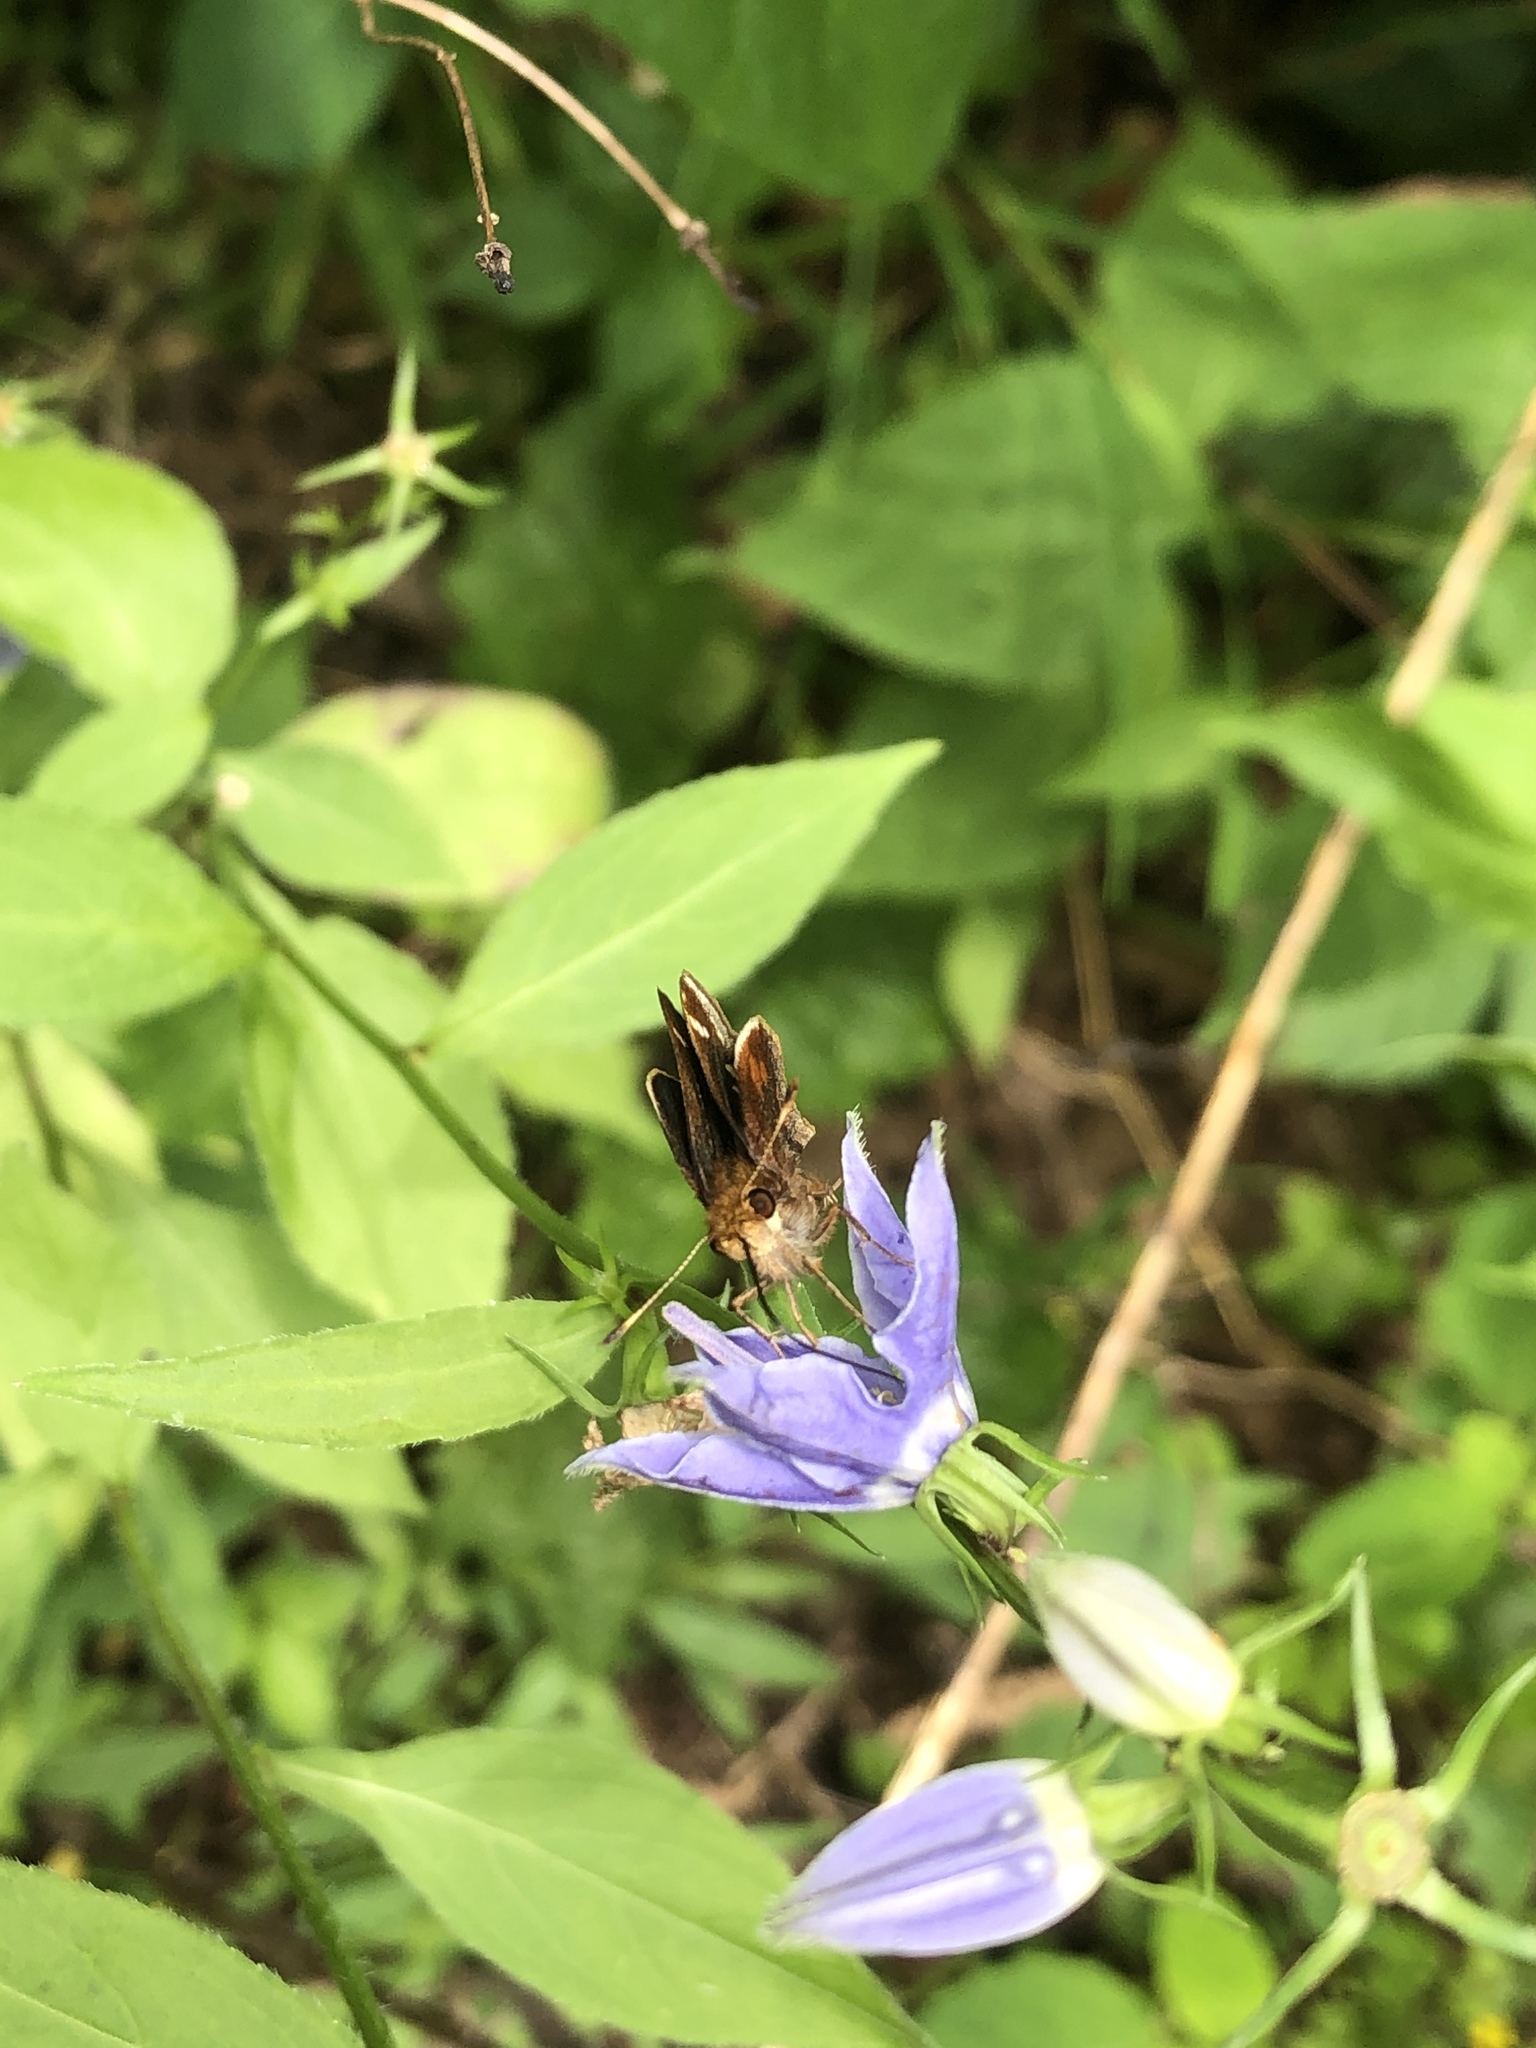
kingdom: Animalia
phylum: Arthropoda
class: Insecta
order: Lepidoptera
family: Hesperiidae
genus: Lon
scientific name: Lon zabulon
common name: Zabulon skipper
